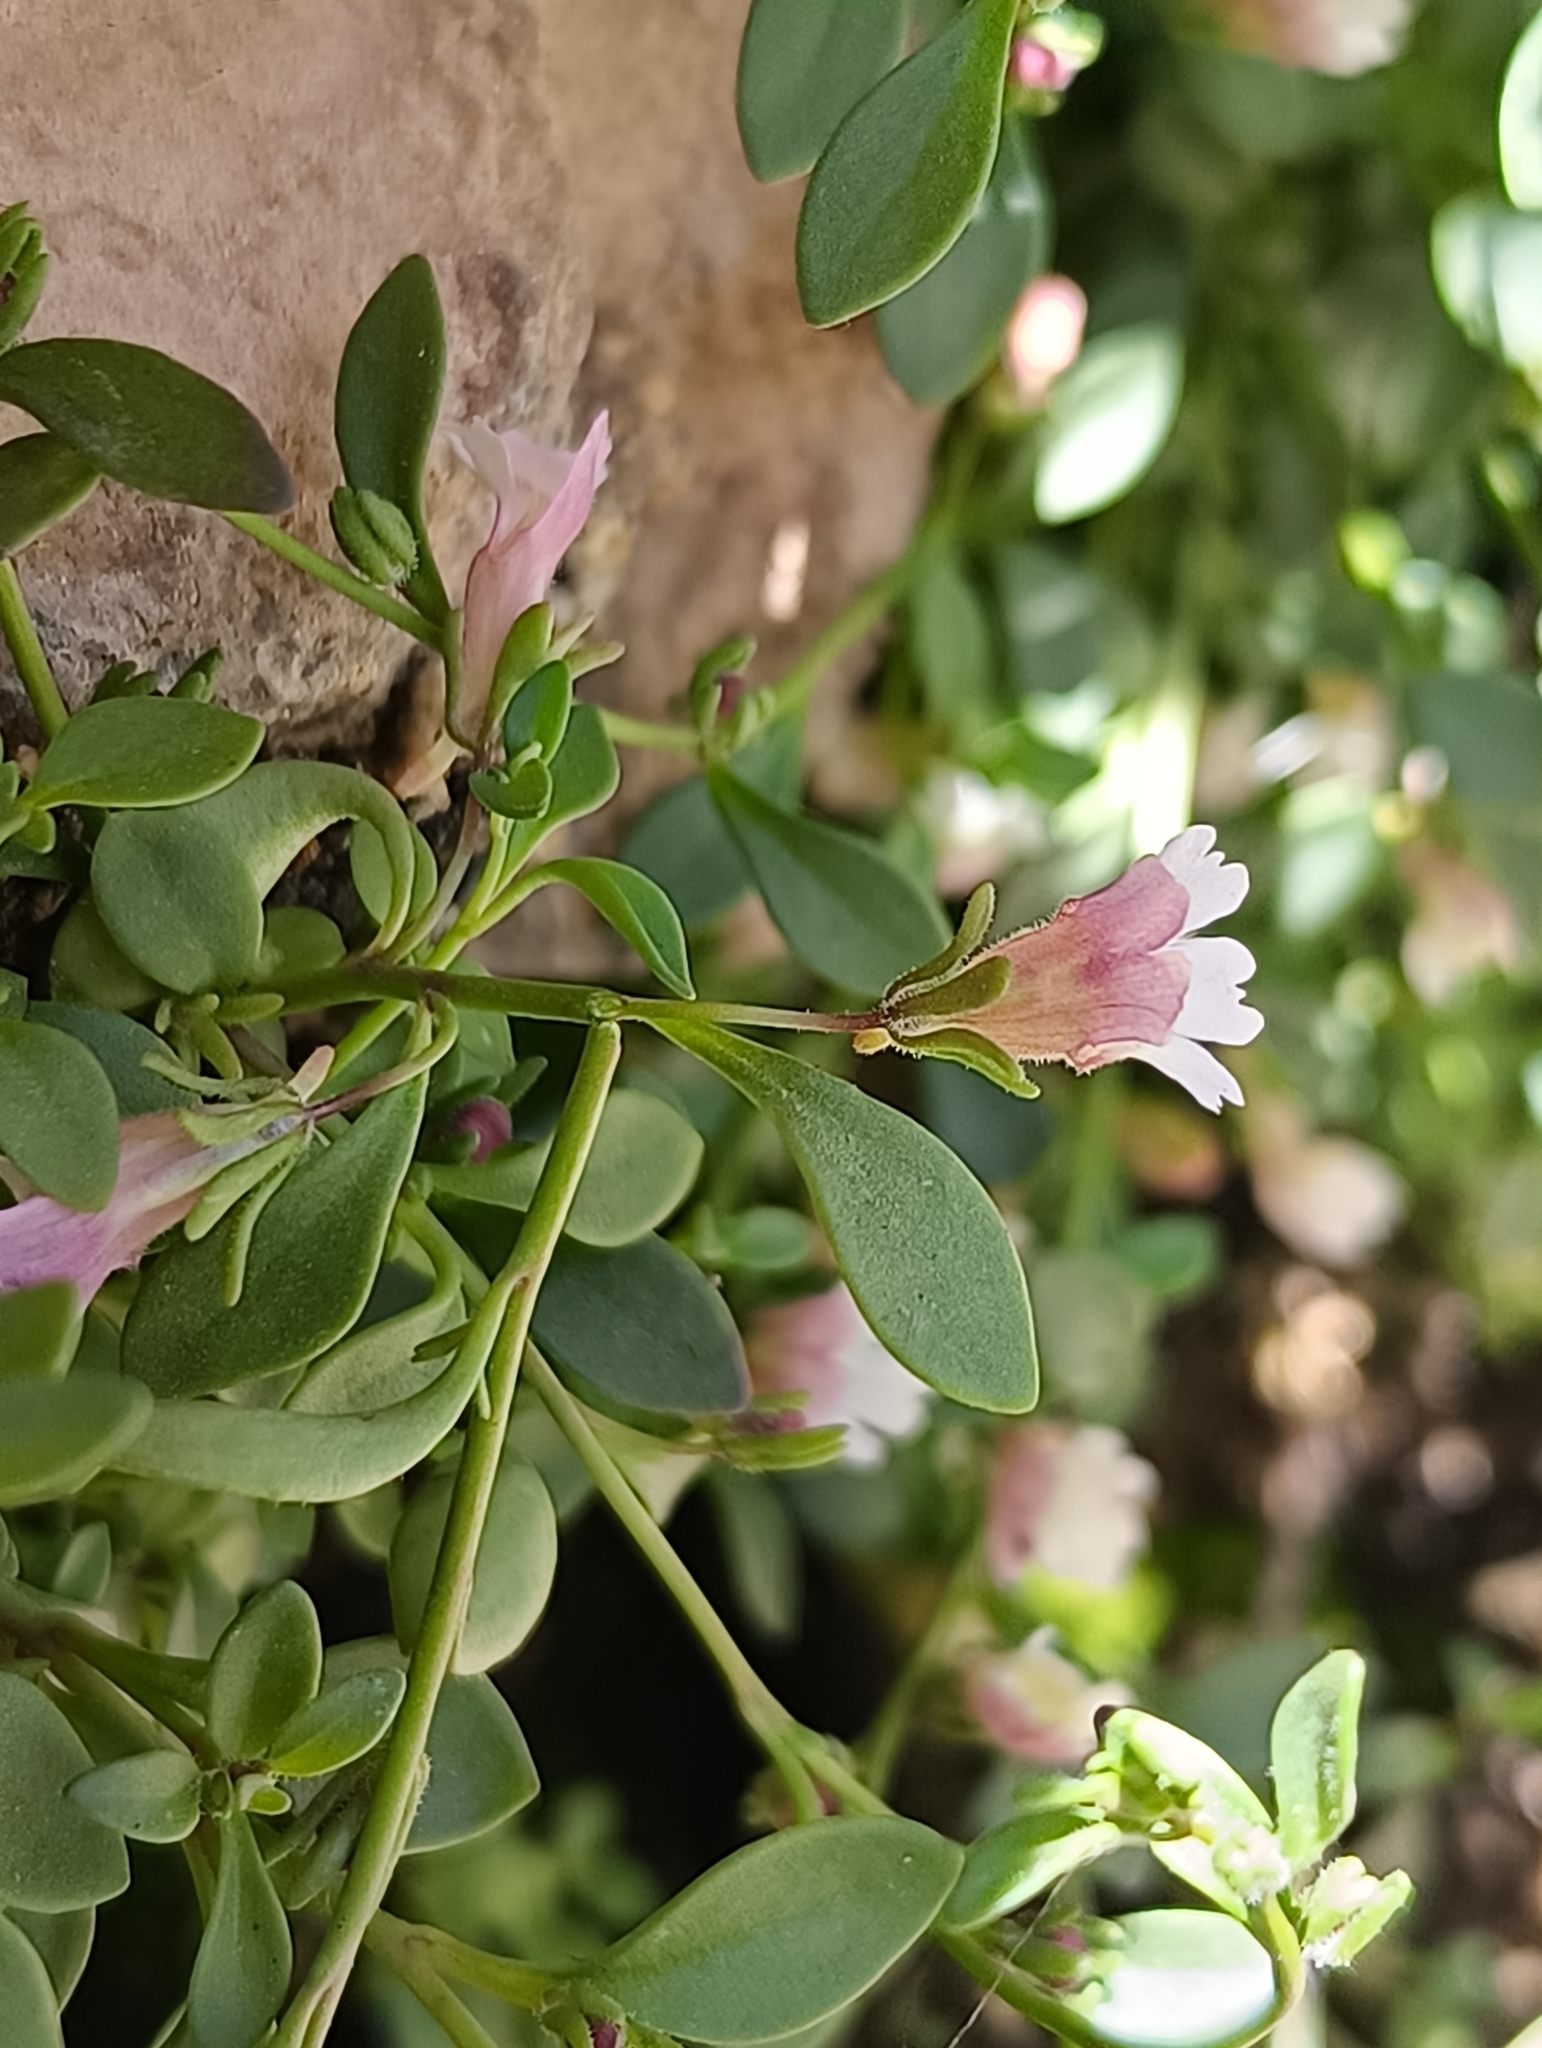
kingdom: Plantae
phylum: Tracheophyta
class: Magnoliopsida
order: Lamiales
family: Plantaginaceae
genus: Chaenorhinum
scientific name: Chaenorhinum flexuosum
